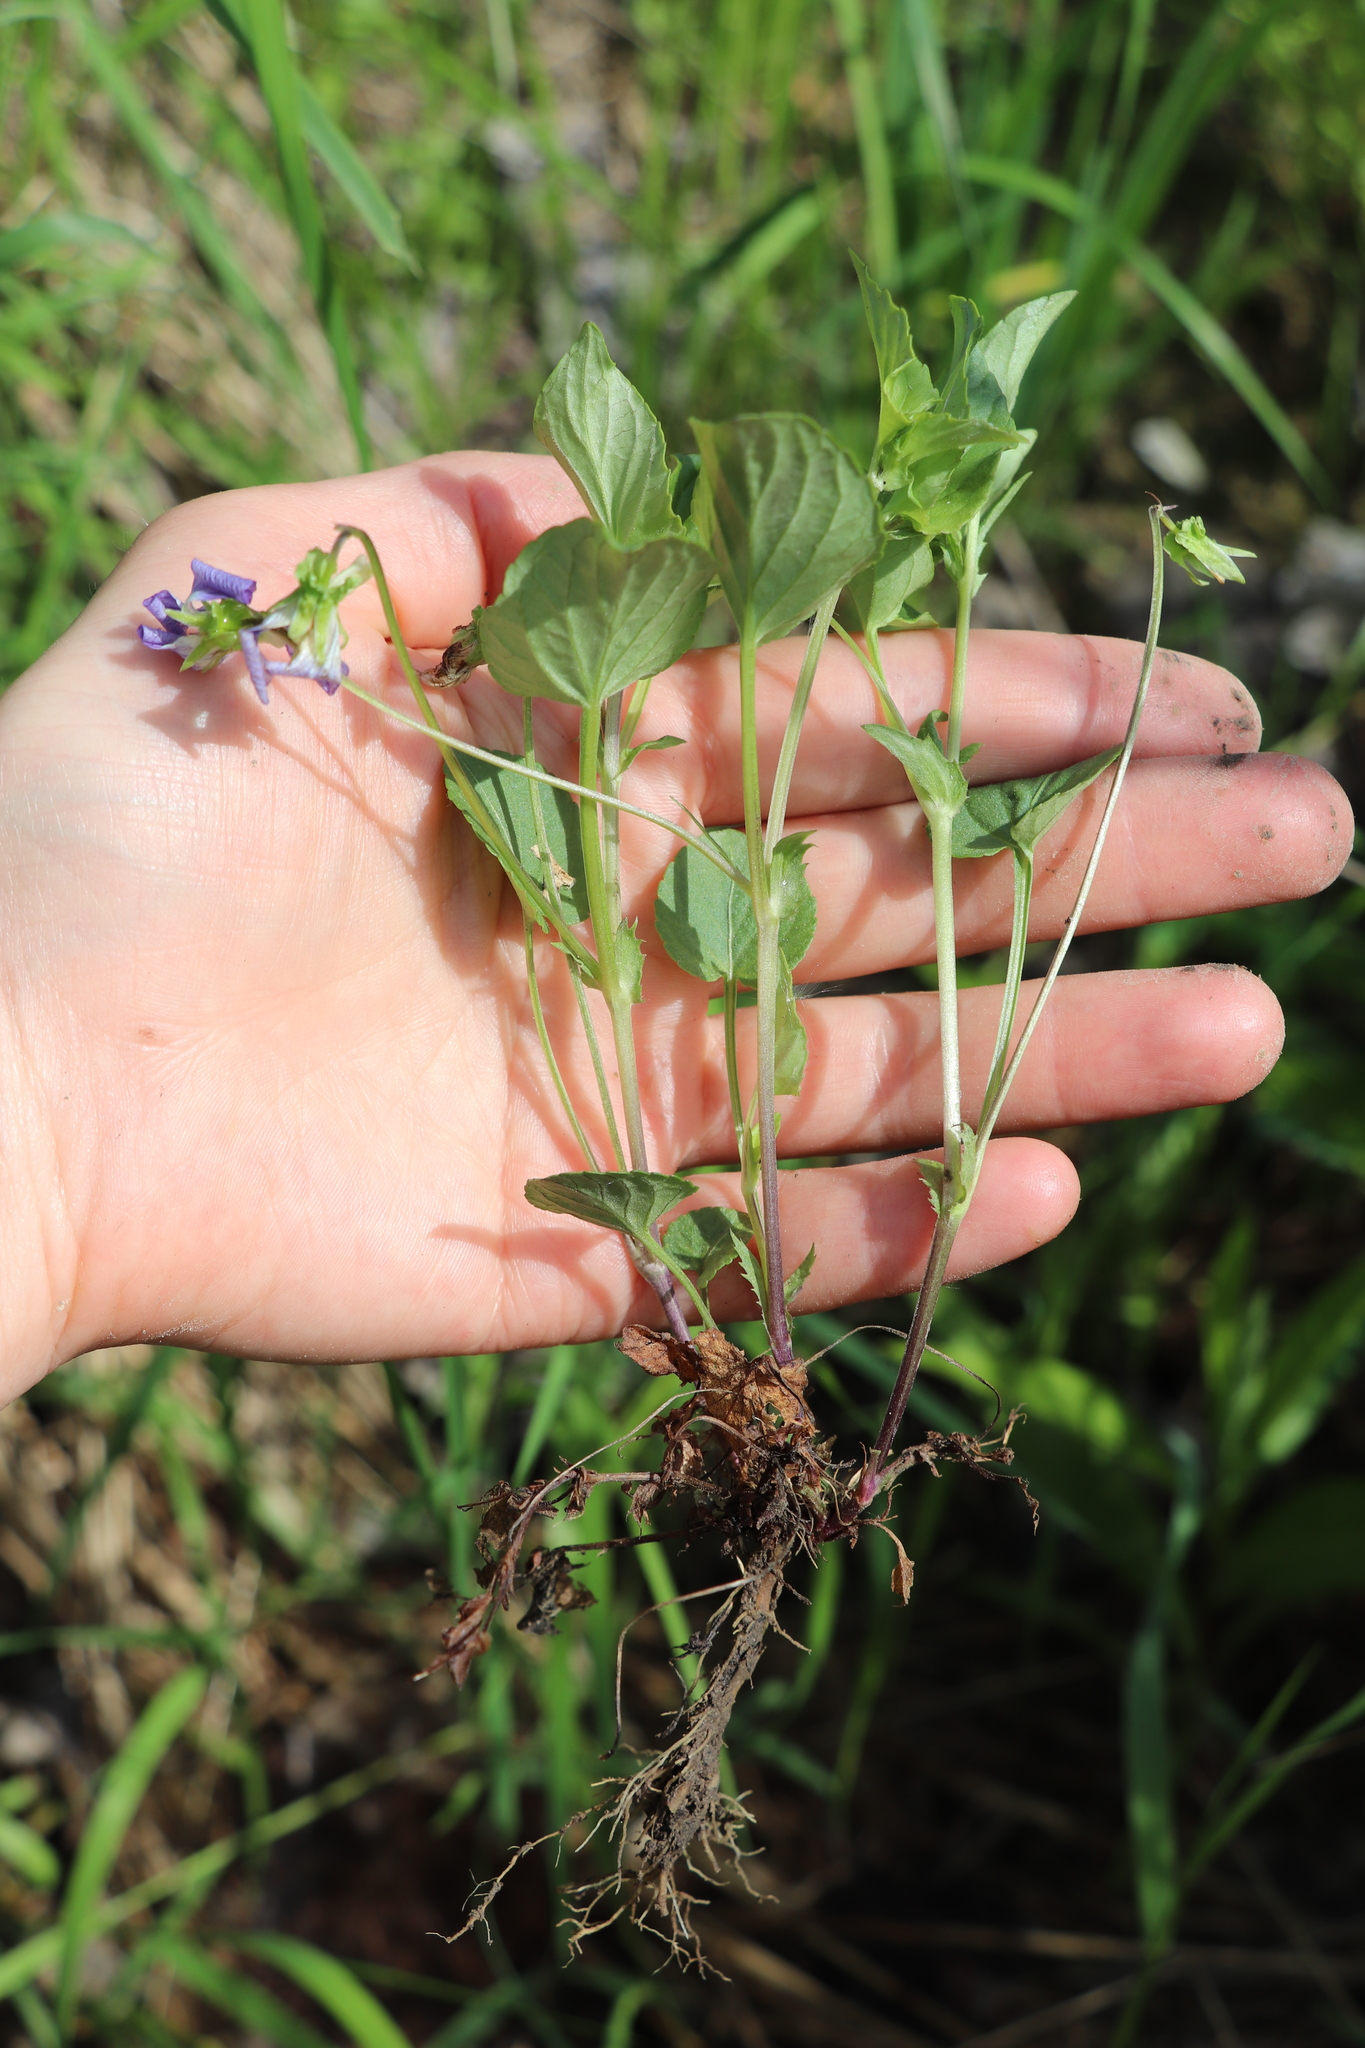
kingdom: Plantae
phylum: Tracheophyta
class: Magnoliopsida
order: Malpighiales
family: Violaceae
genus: Viola
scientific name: Viola canina
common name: Heath dog-violet
